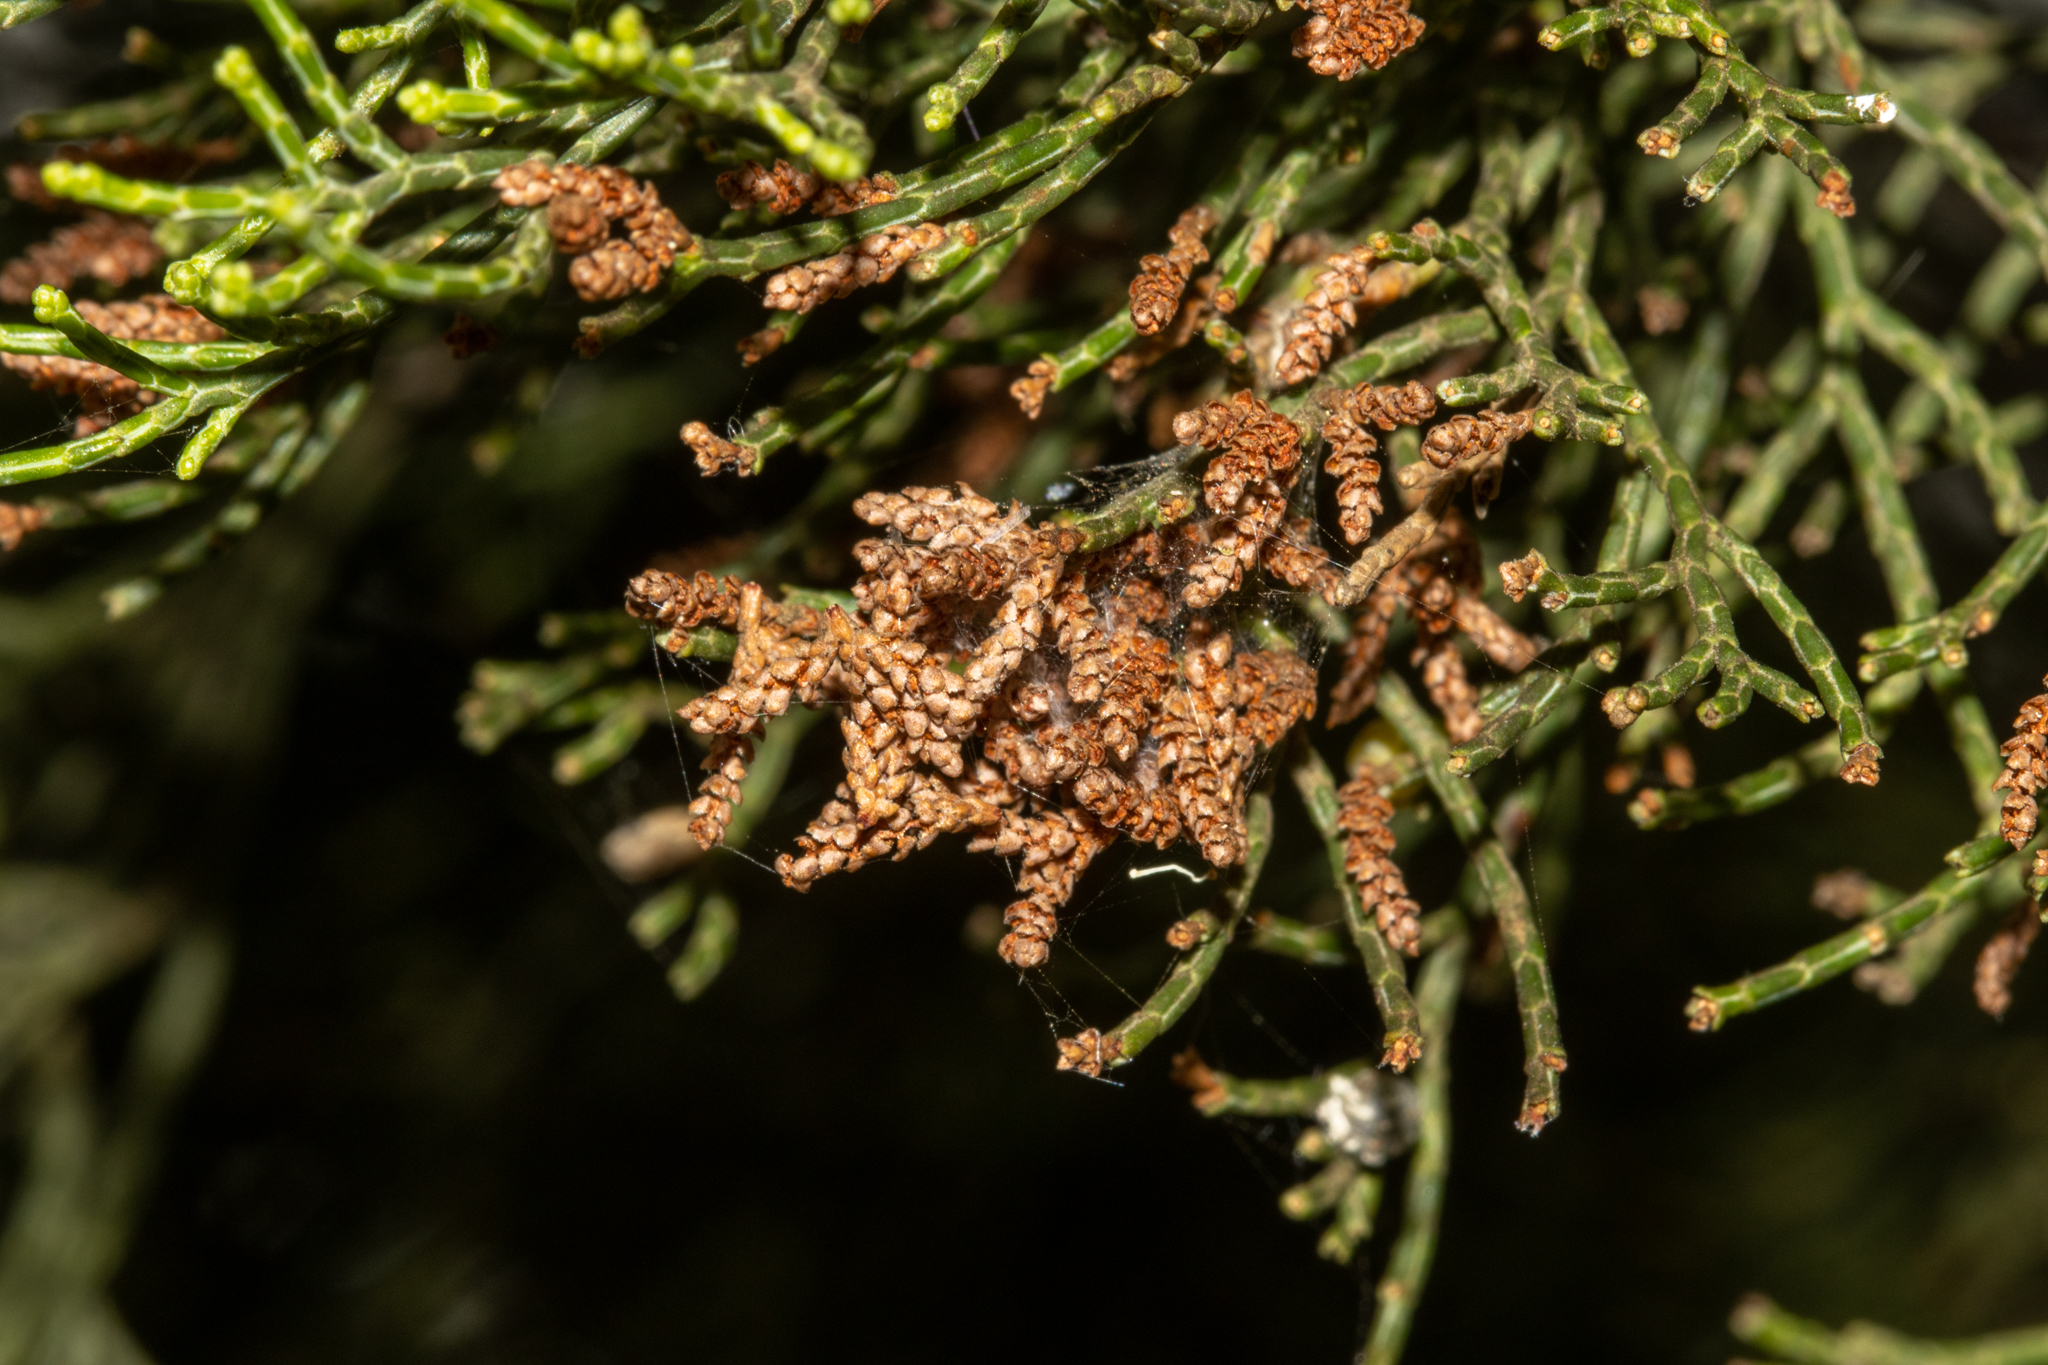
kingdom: Plantae
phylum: Tracheophyta
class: Pinopsida
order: Pinales
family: Cupressaceae
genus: Callitris
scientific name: Callitris preissii
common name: Mallee pine
